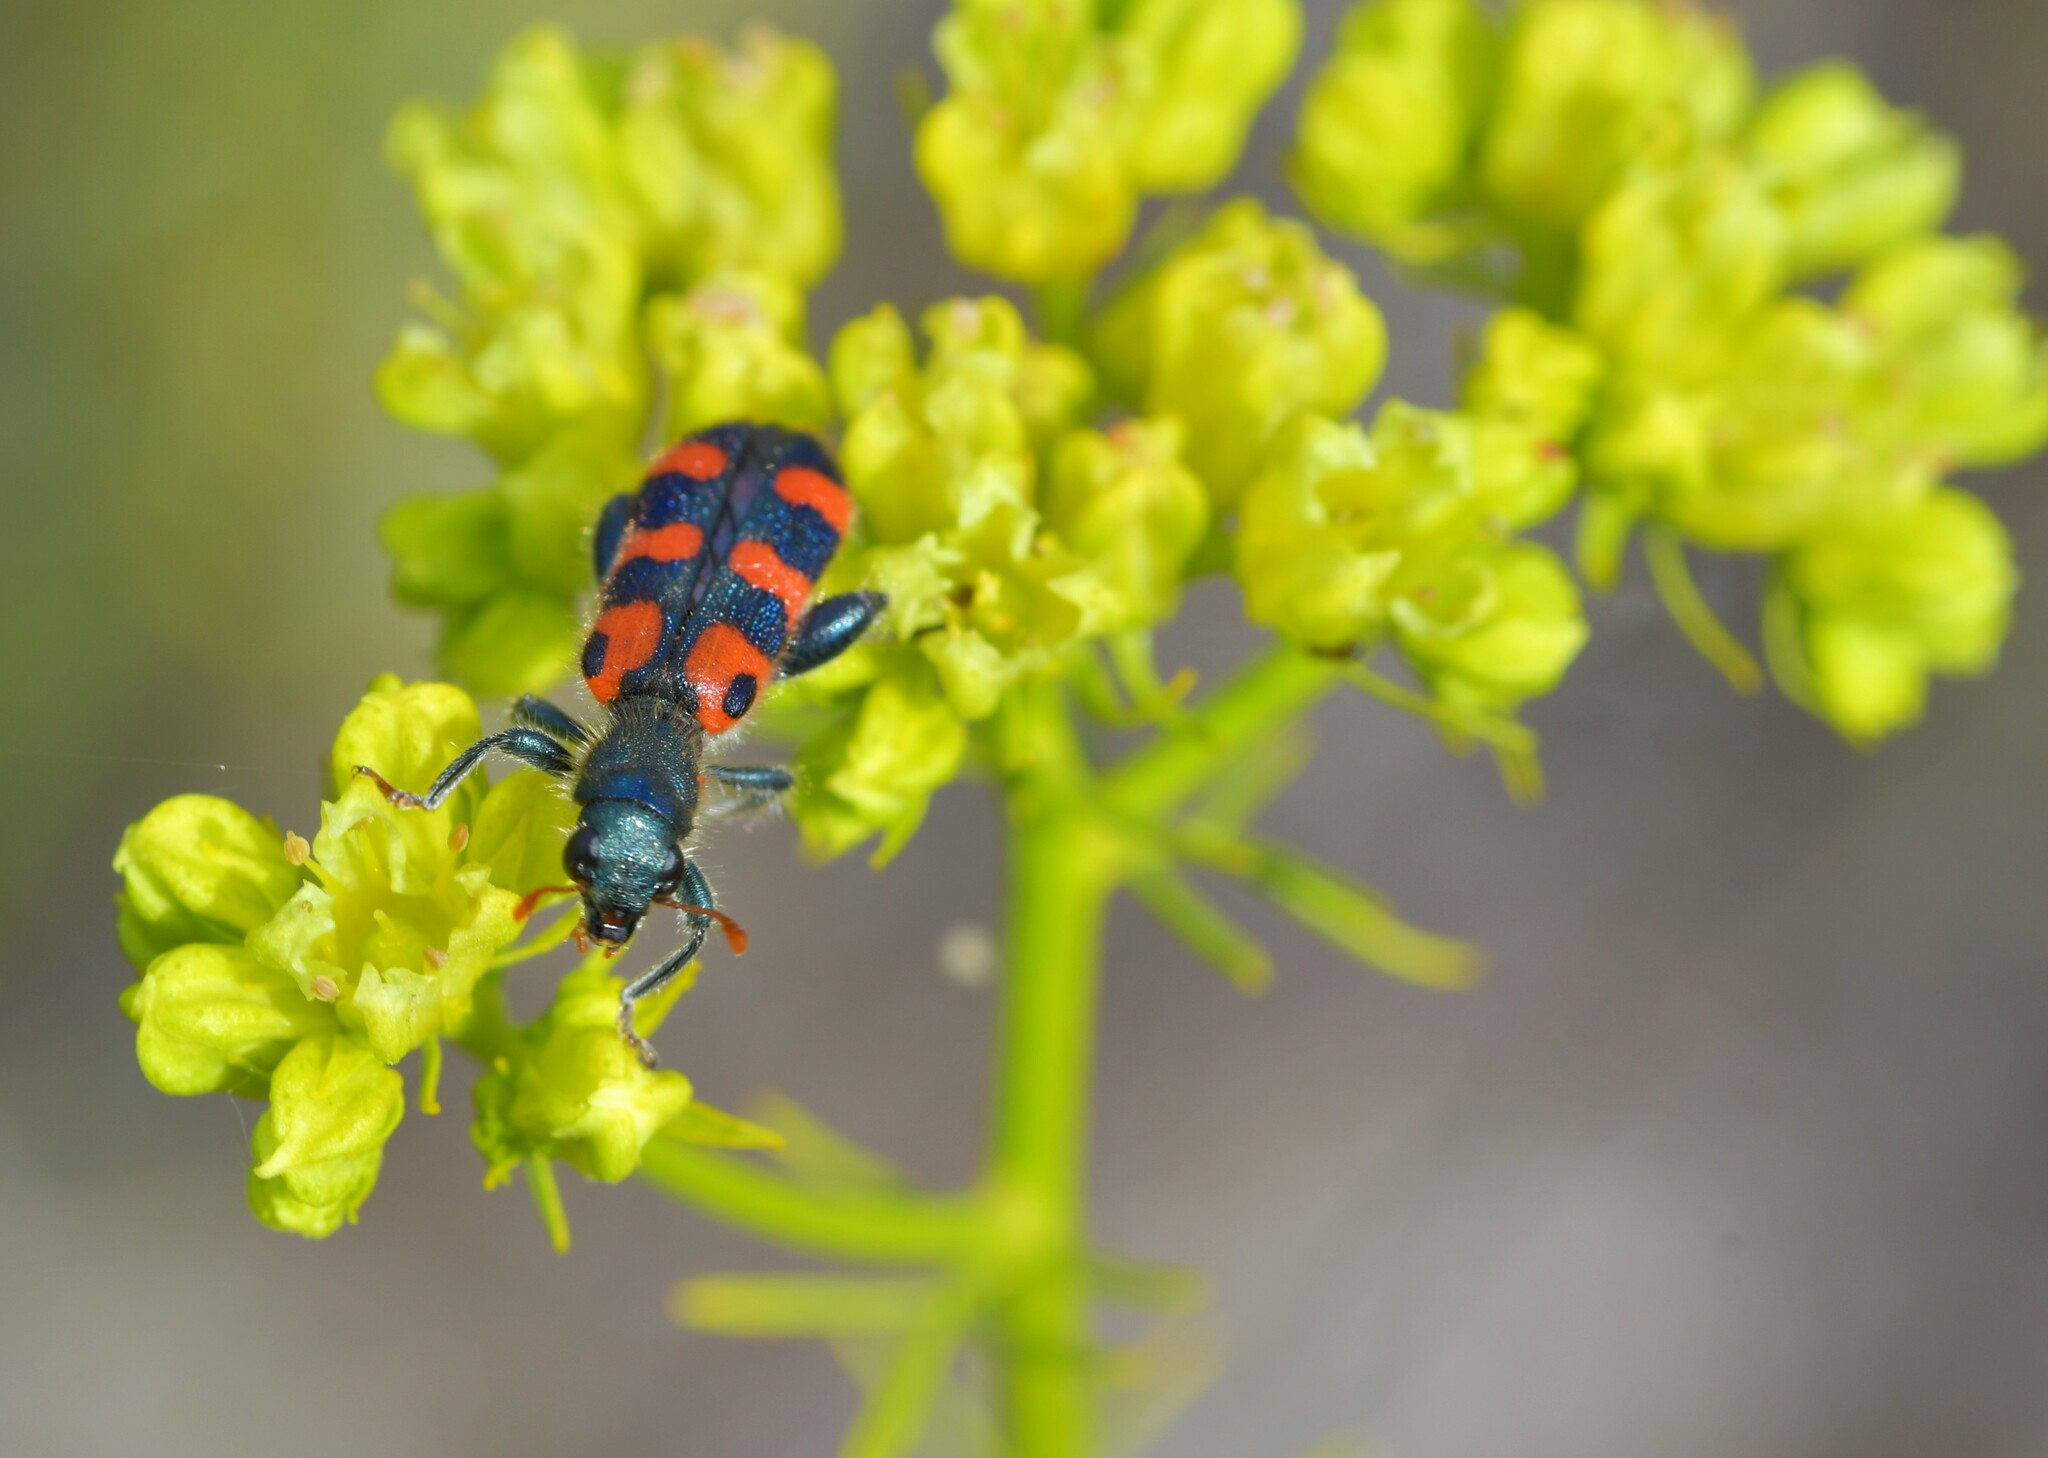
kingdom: Animalia
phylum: Arthropoda
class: Insecta
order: Coleoptera
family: Cleridae
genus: Trichodes
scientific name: Trichodes leucopsideus
